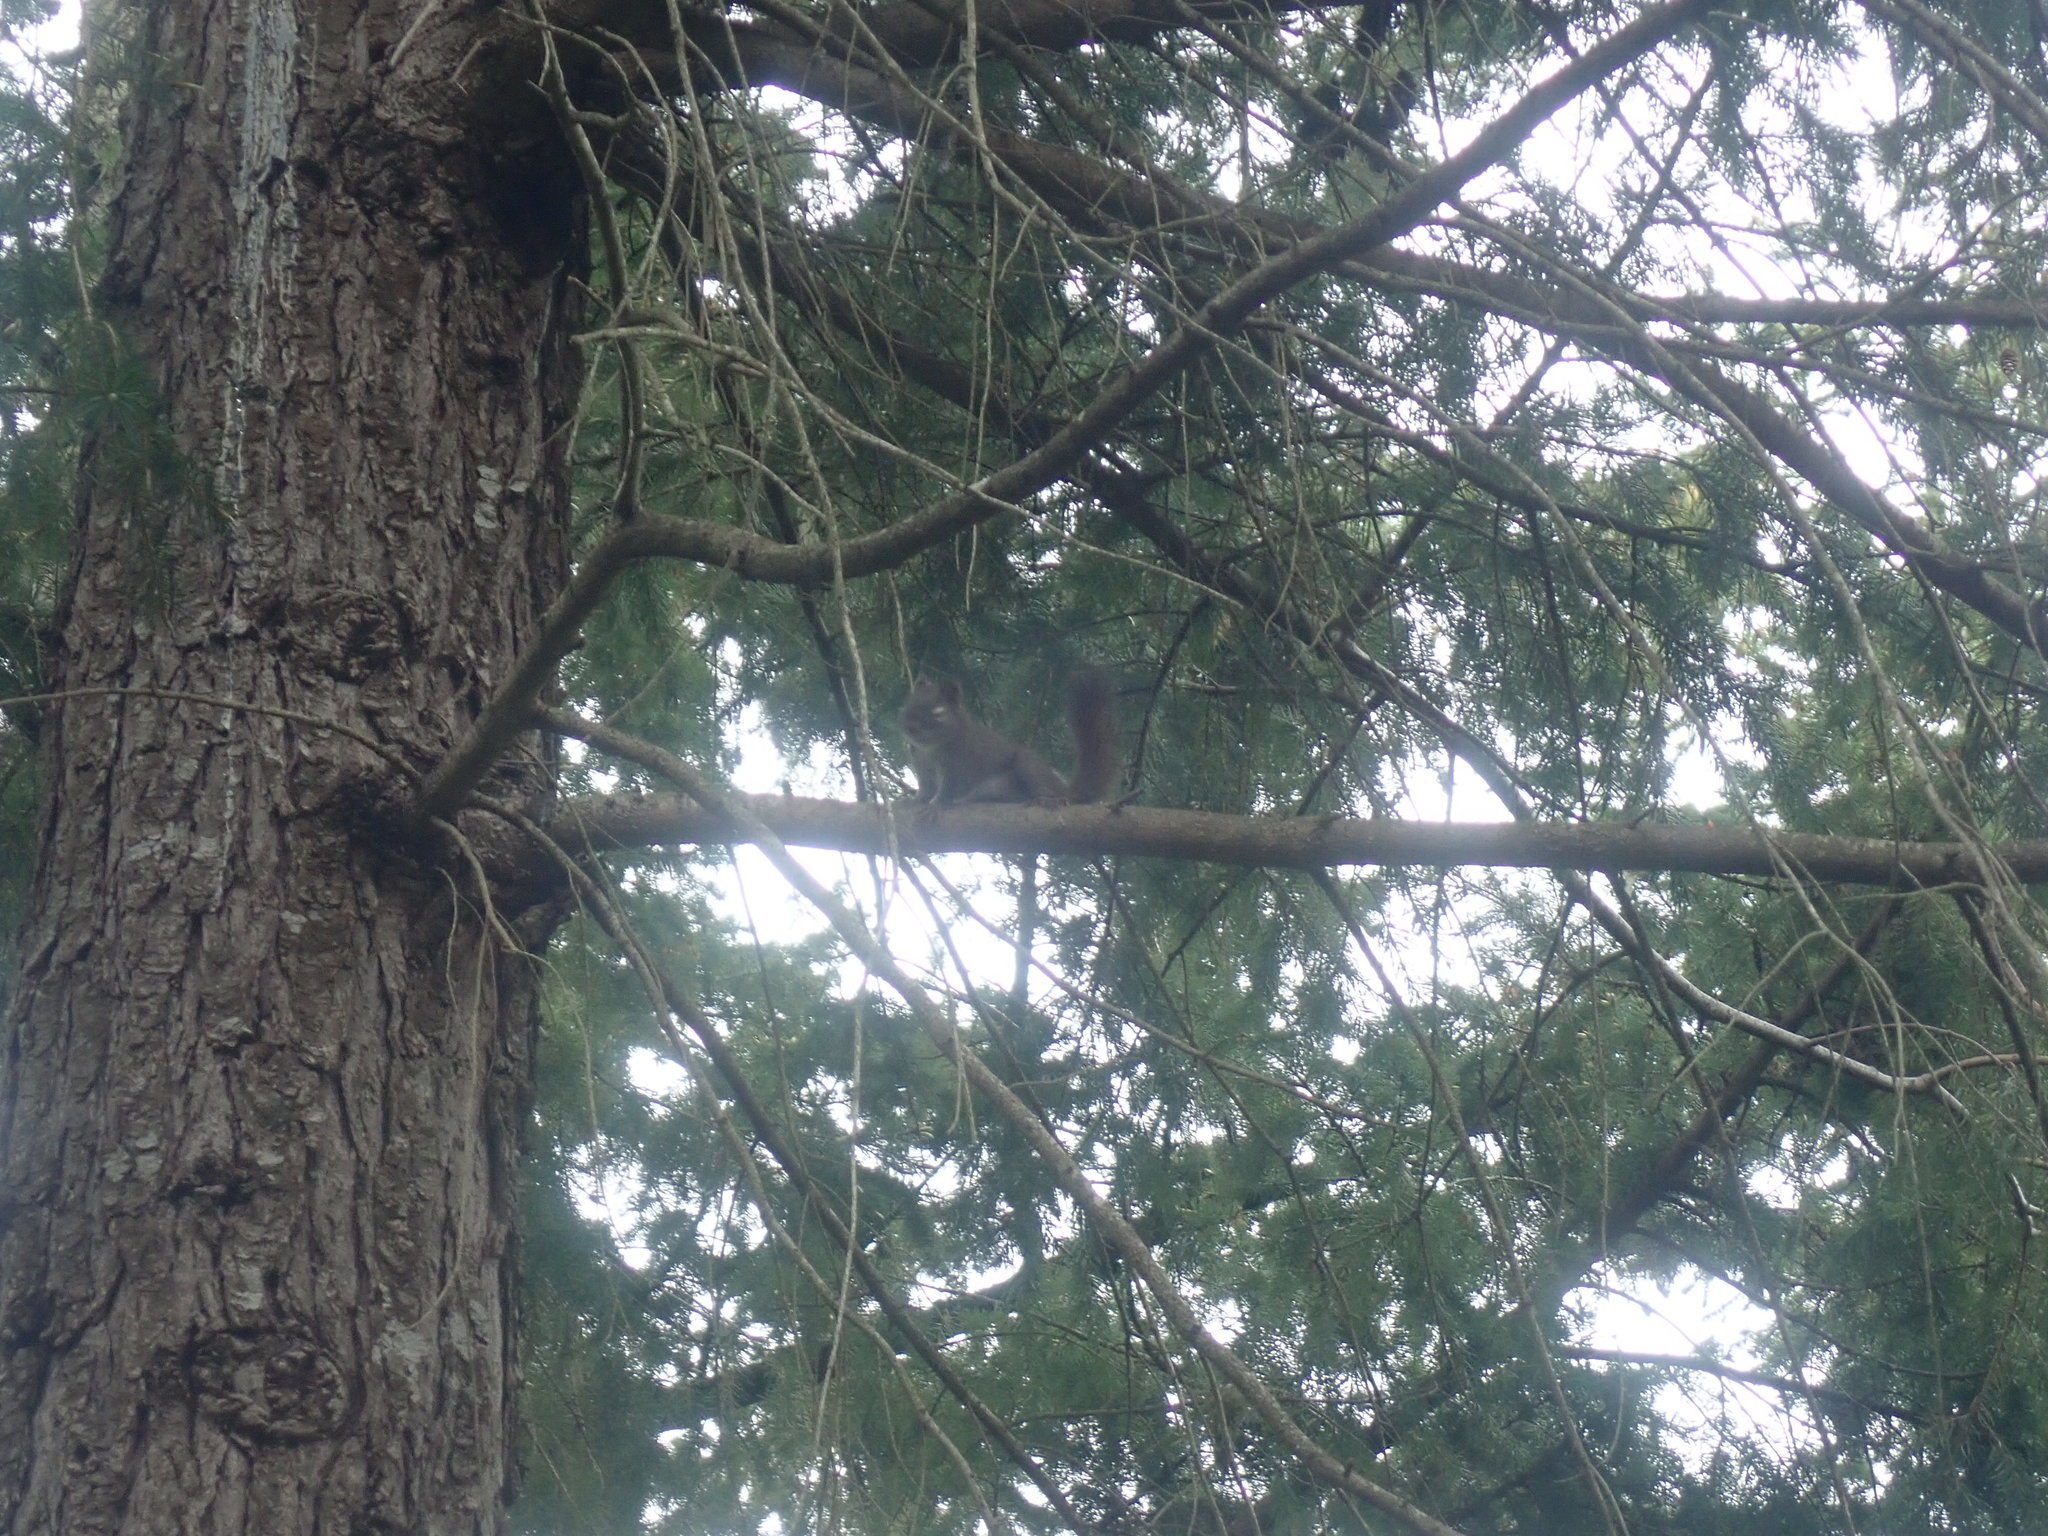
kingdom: Animalia
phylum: Chordata
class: Mammalia
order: Rodentia
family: Sciuridae
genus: Tamiasciurus
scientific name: Tamiasciurus hudsonicus
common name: Red squirrel
